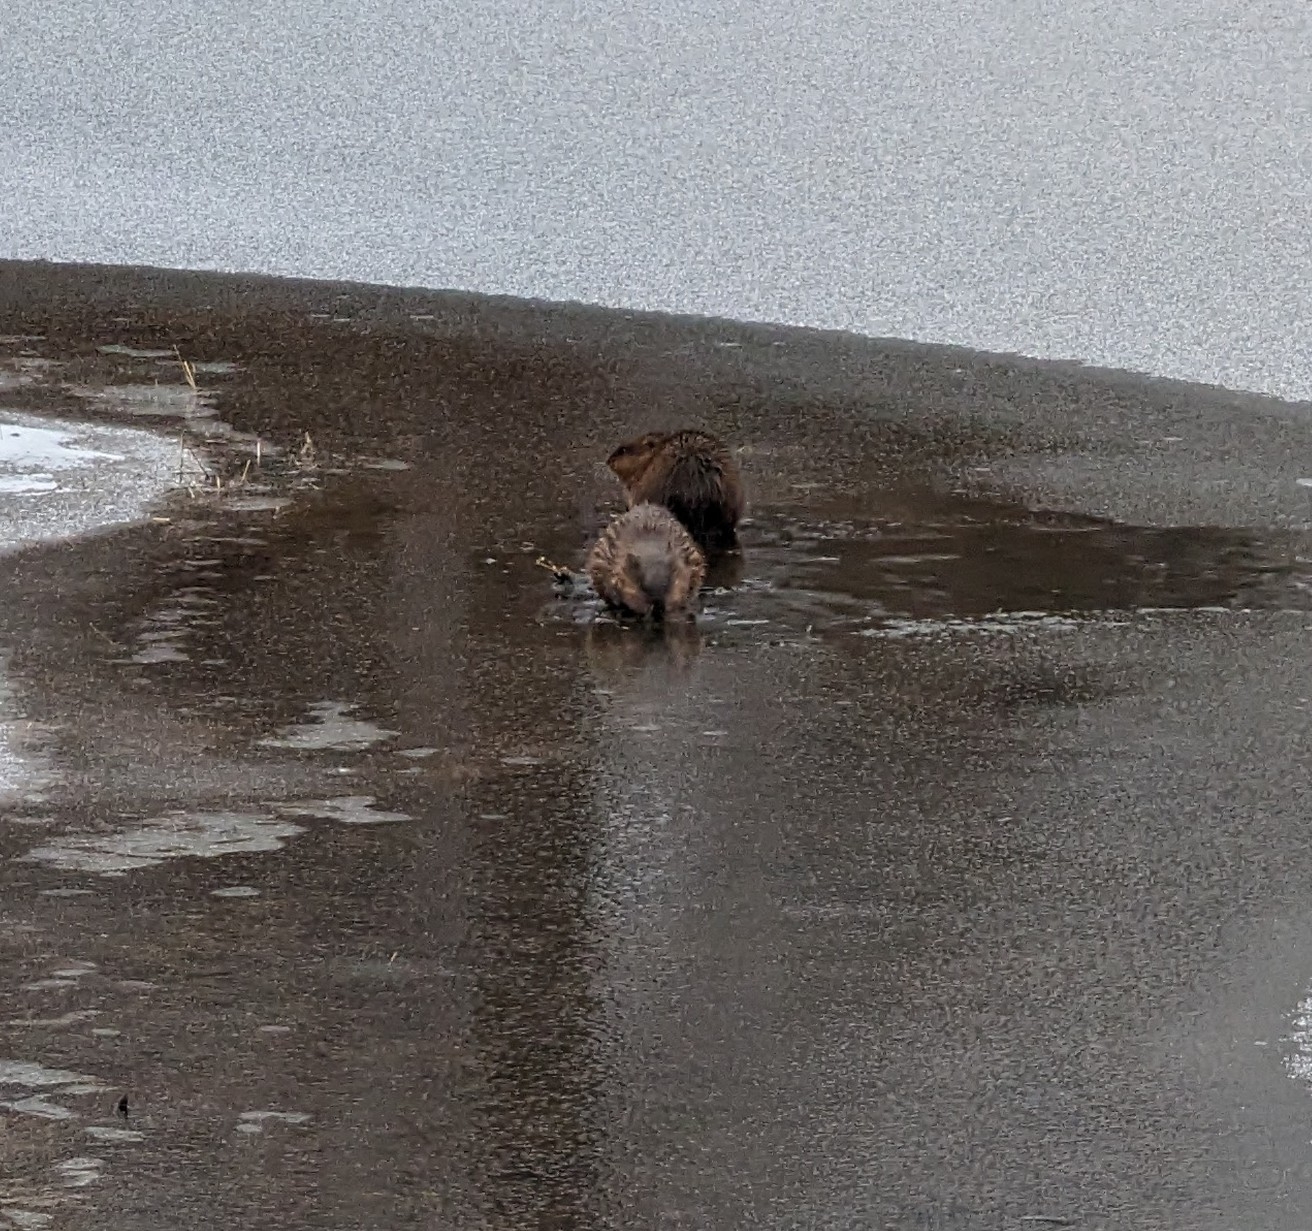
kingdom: Animalia
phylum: Chordata
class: Mammalia
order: Rodentia
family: Cricetidae
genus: Ondatra
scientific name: Ondatra zibethicus
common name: Muskrat
